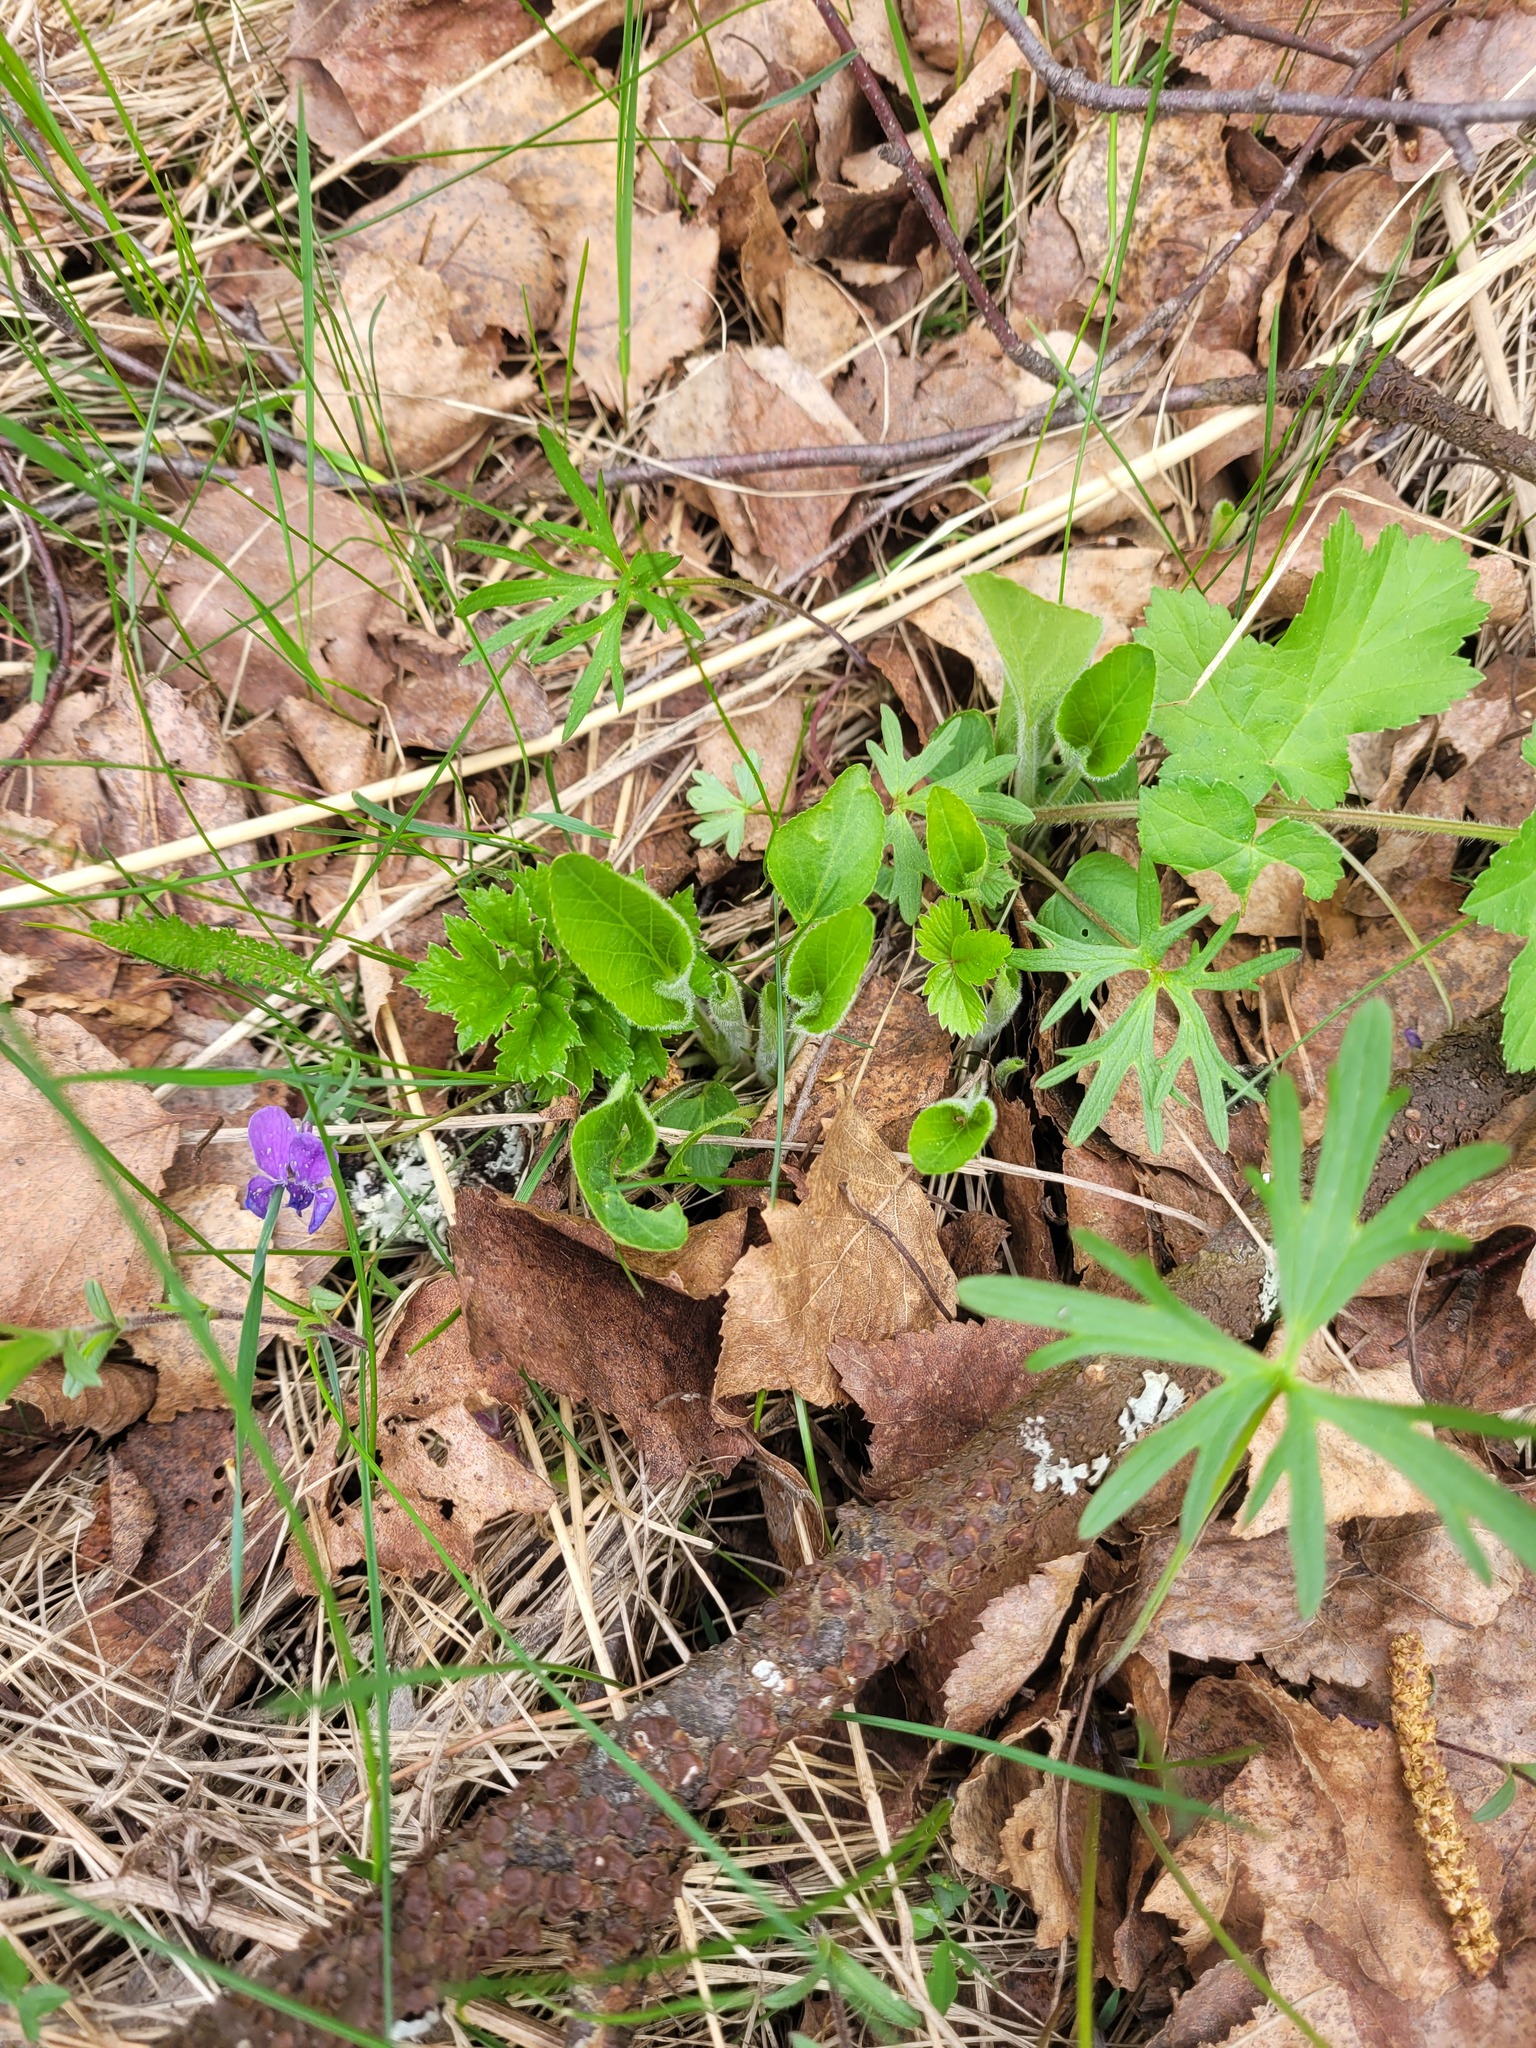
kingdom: Plantae
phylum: Tracheophyta
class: Magnoliopsida
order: Malpighiales
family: Violaceae
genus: Viola
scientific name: Viola hirta
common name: Hairy violet
